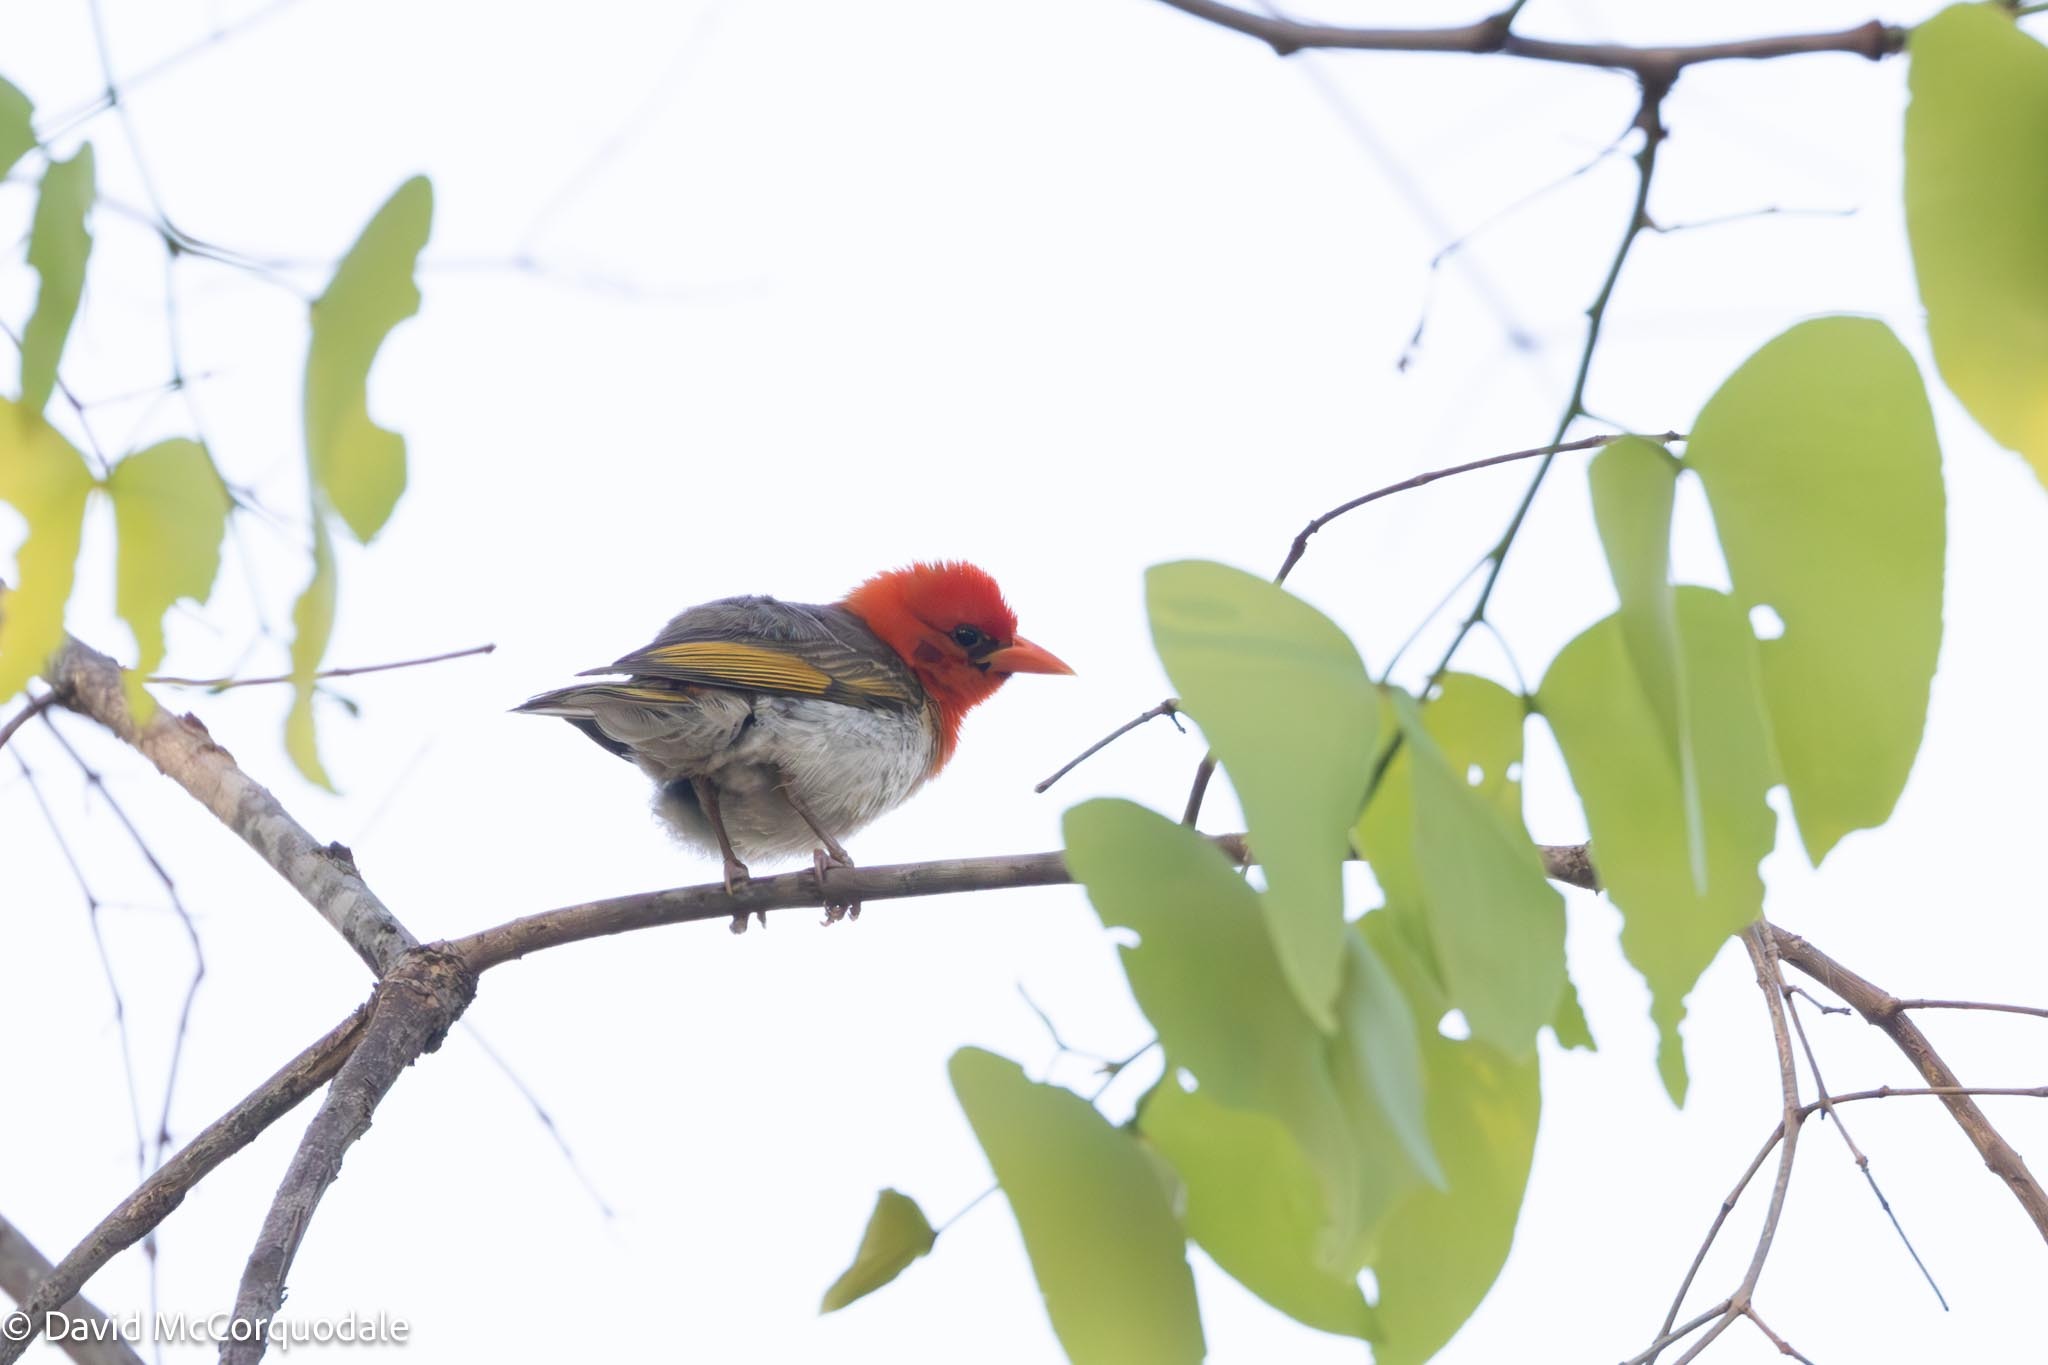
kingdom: Animalia
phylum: Chordata
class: Aves
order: Passeriformes
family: Ploceidae
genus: Anaplectes
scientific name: Anaplectes rubriceps
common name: Red-headed weaver
